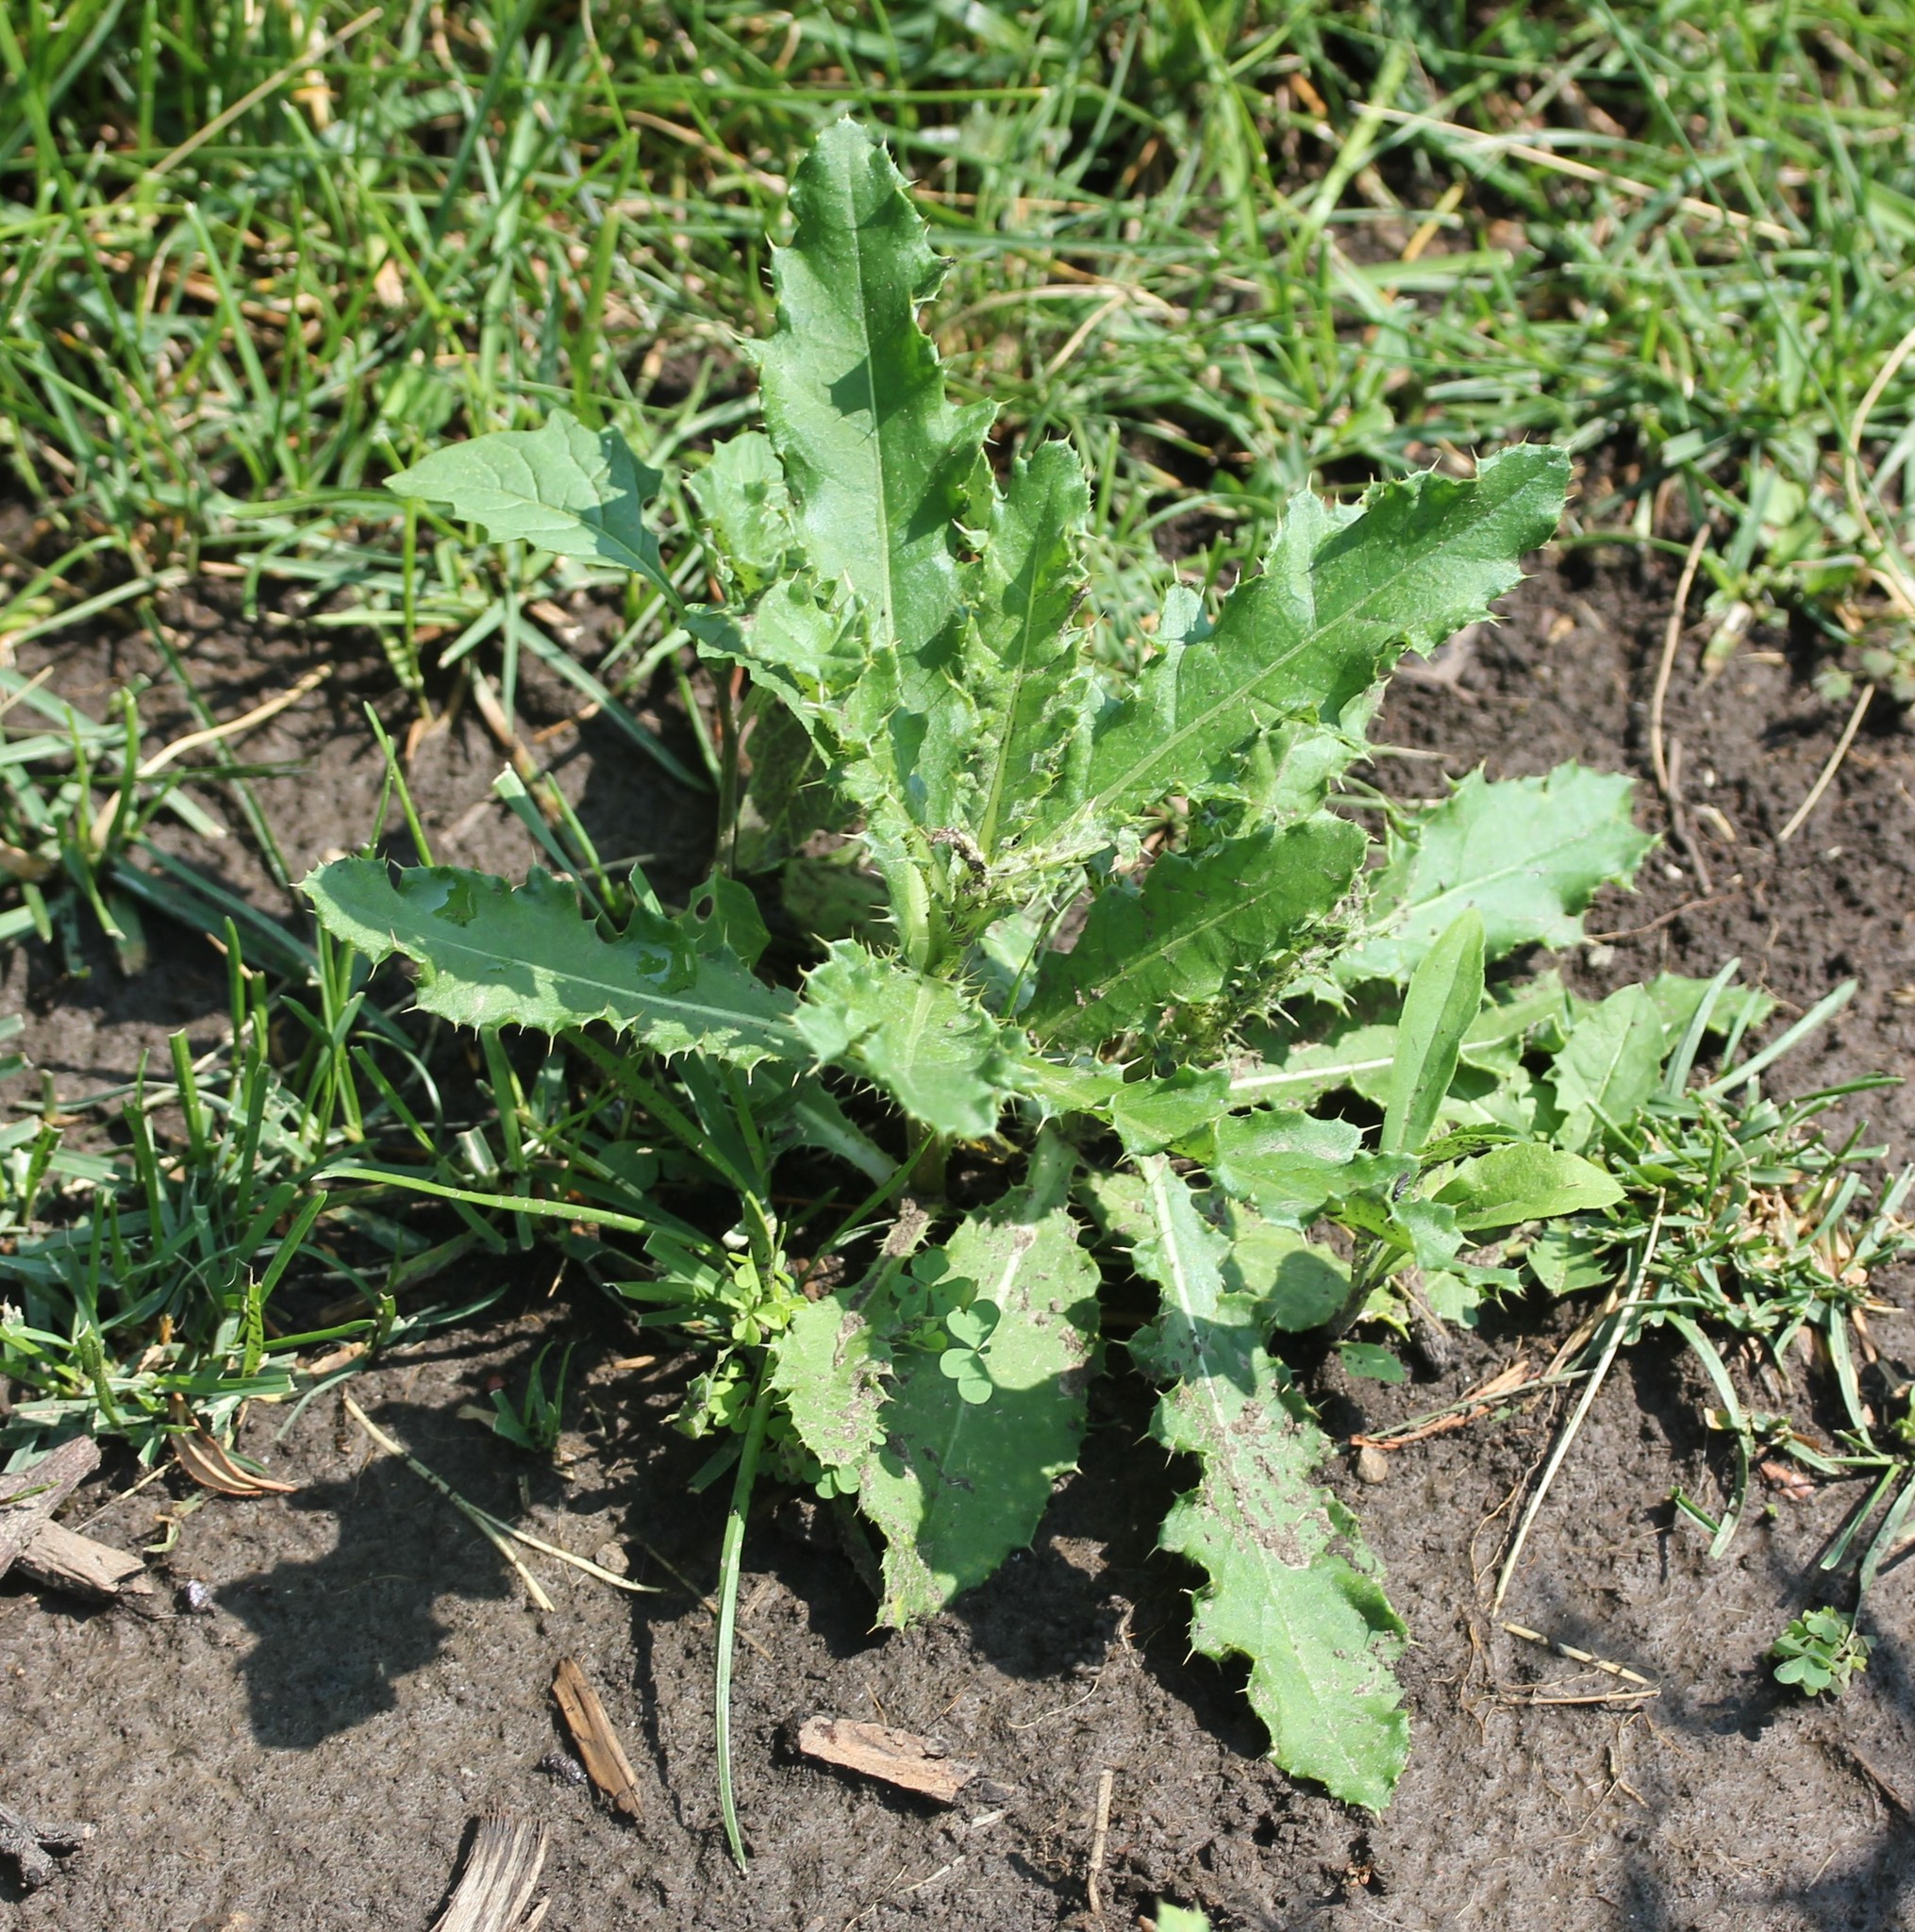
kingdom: Plantae
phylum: Tracheophyta
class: Magnoliopsida
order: Asterales
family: Asteraceae
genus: Cirsium
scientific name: Cirsium arvense
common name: Creeping thistle
